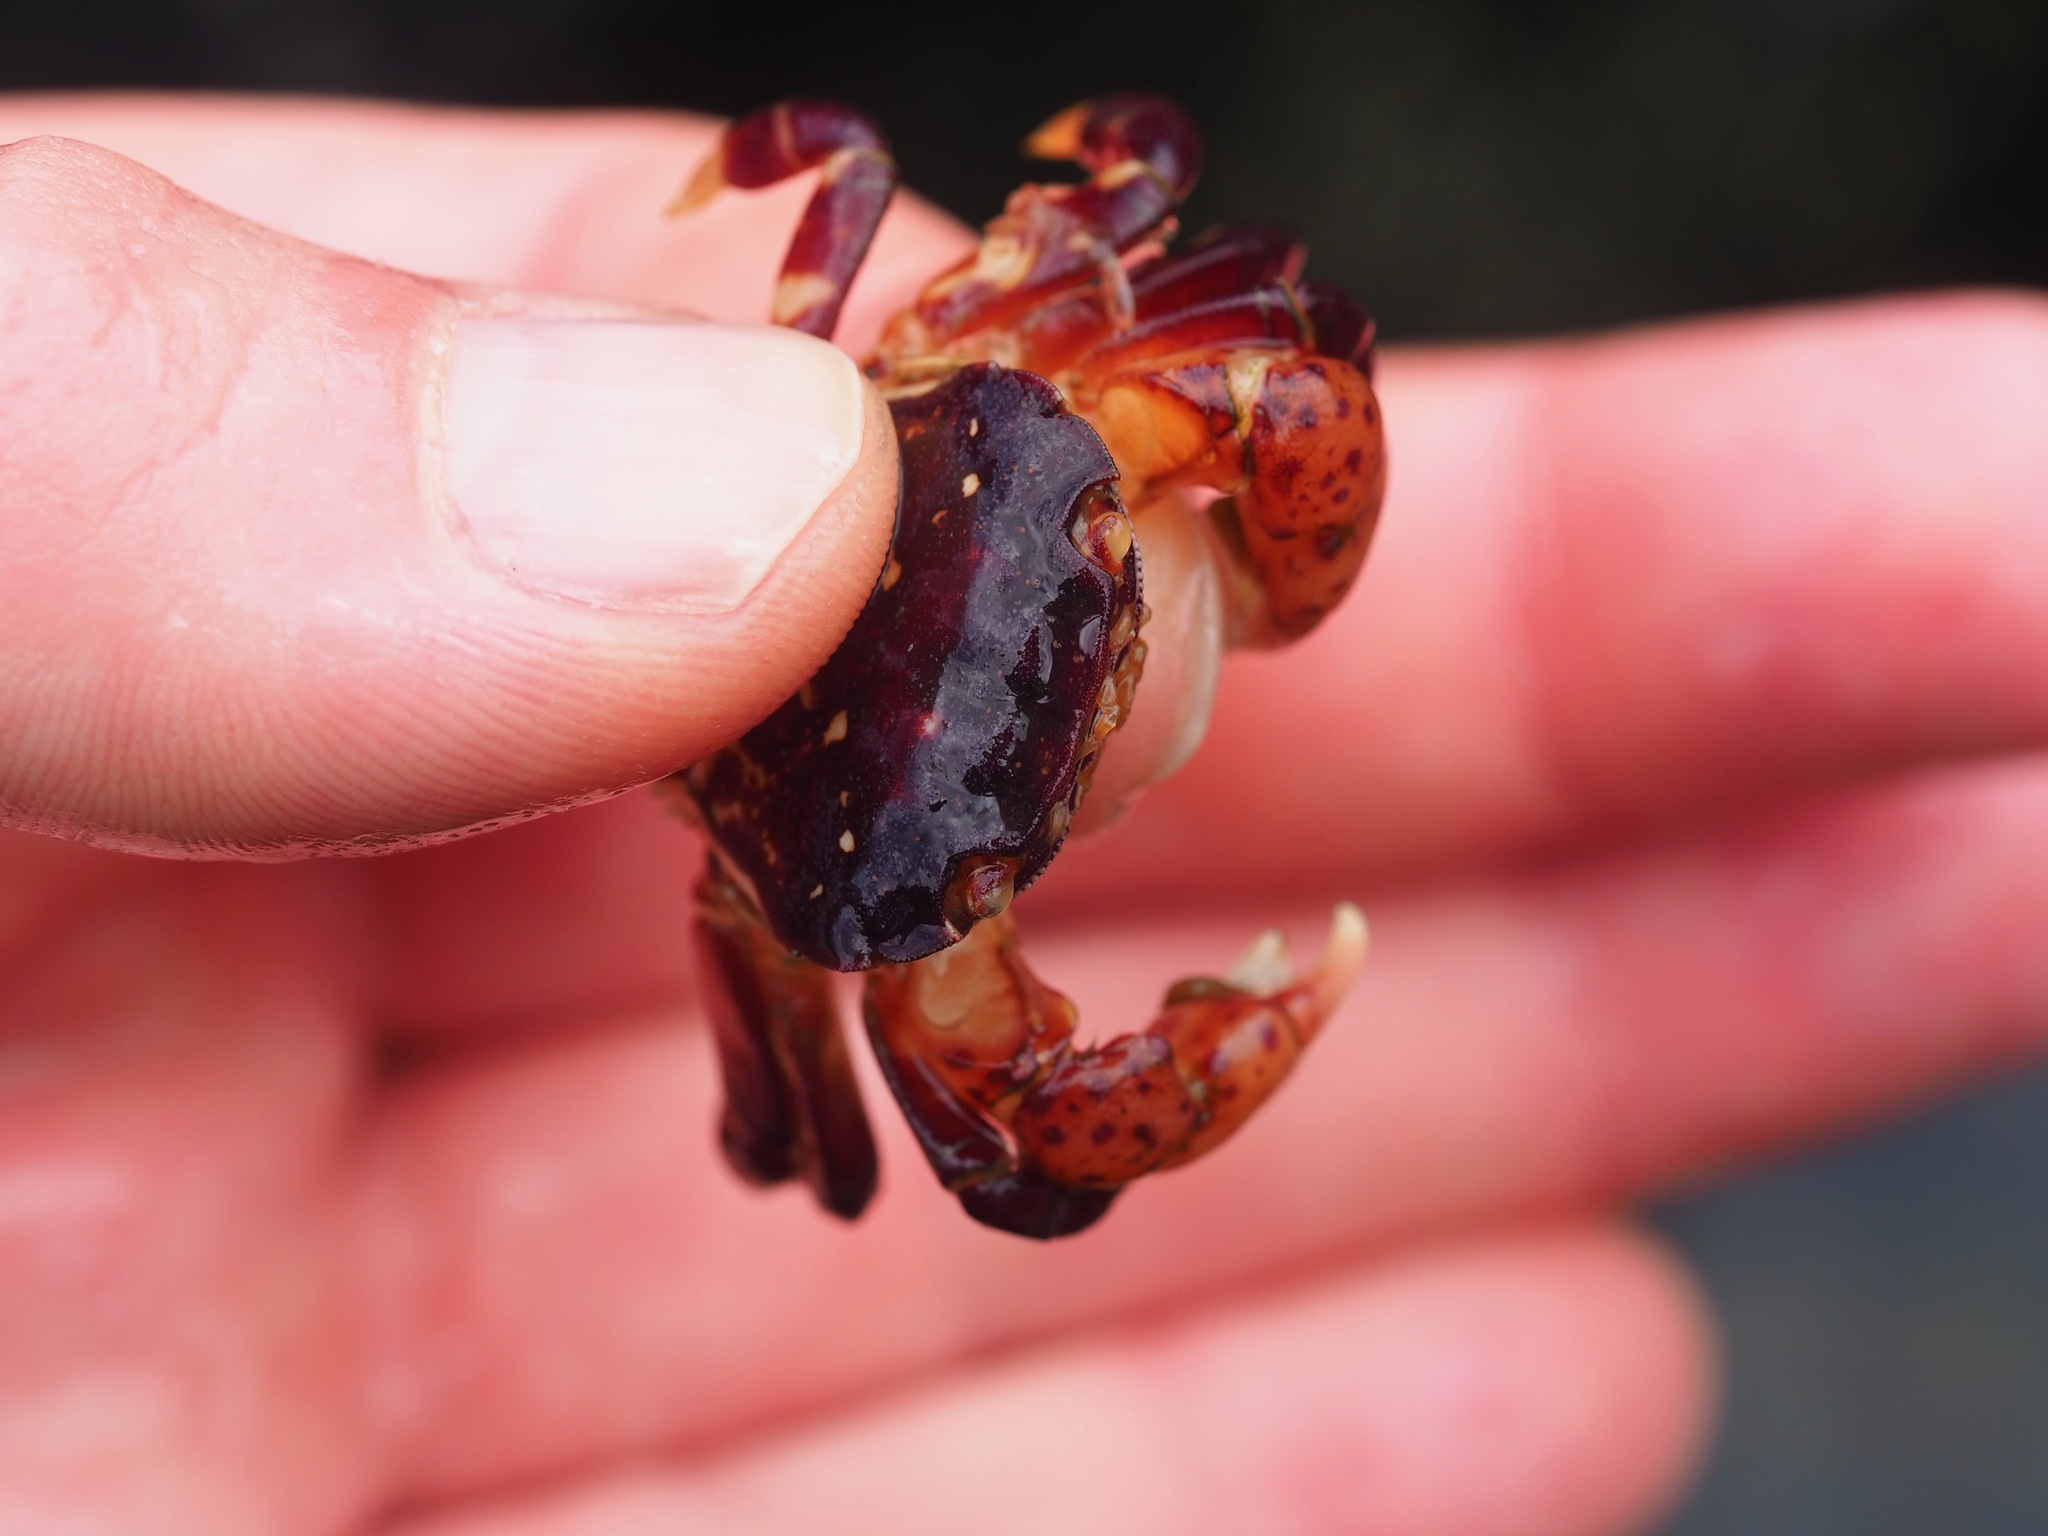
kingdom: Animalia
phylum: Arthropoda
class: Malacostraca
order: Decapoda
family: Varunidae
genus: Hemigrapsus
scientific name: Hemigrapsus nudus
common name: Purple shore crab
